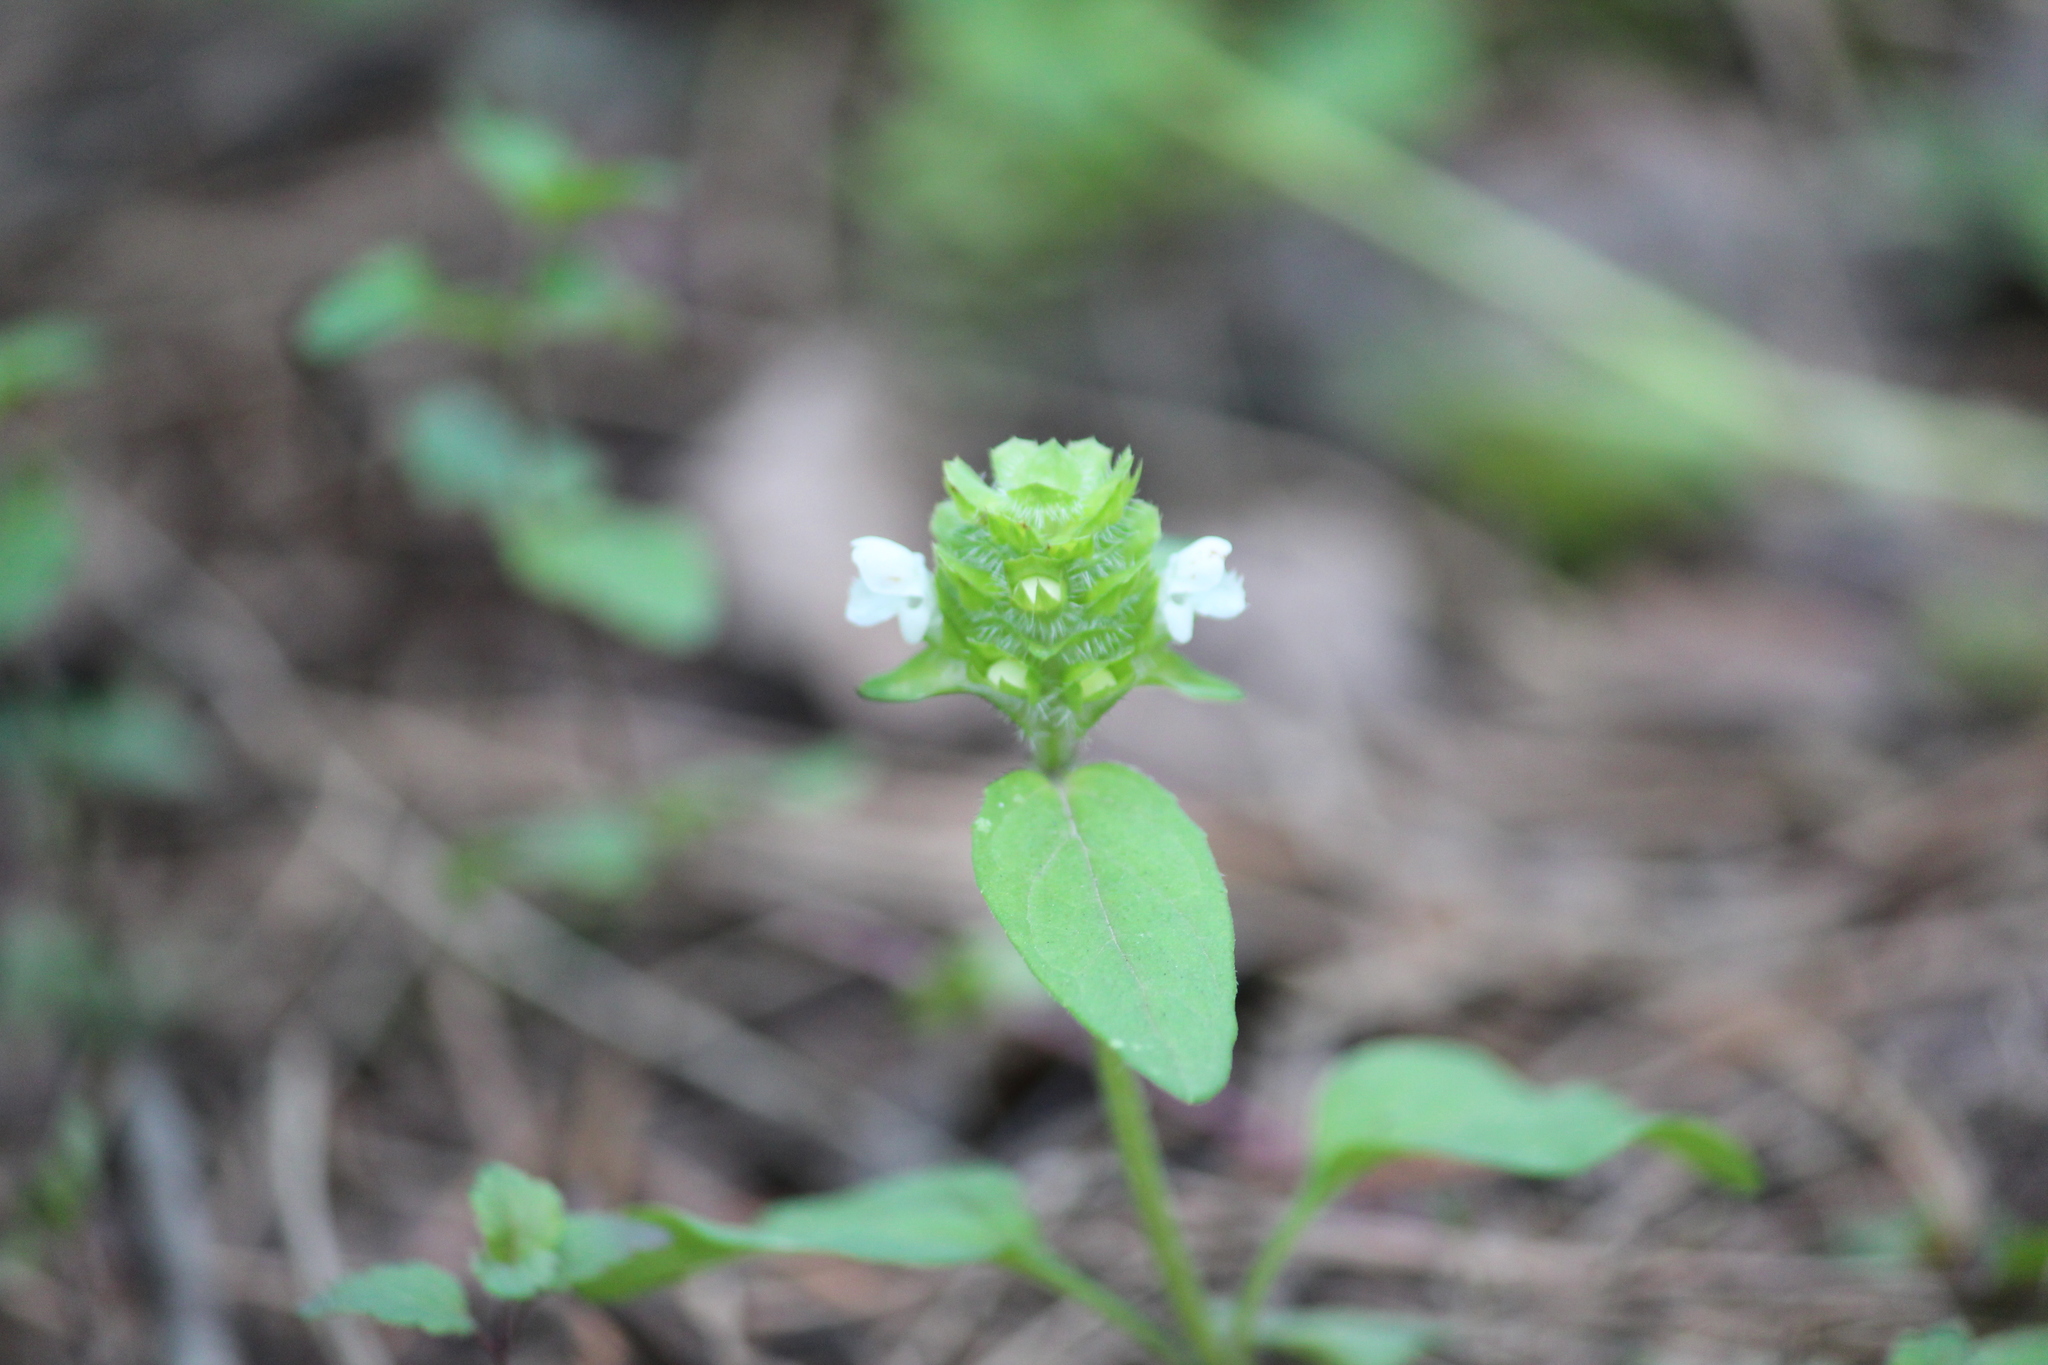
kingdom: Plantae
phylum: Tracheophyta
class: Magnoliopsida
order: Lamiales
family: Lamiaceae
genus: Prunella
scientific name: Prunella vulgaris
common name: Heal-all
